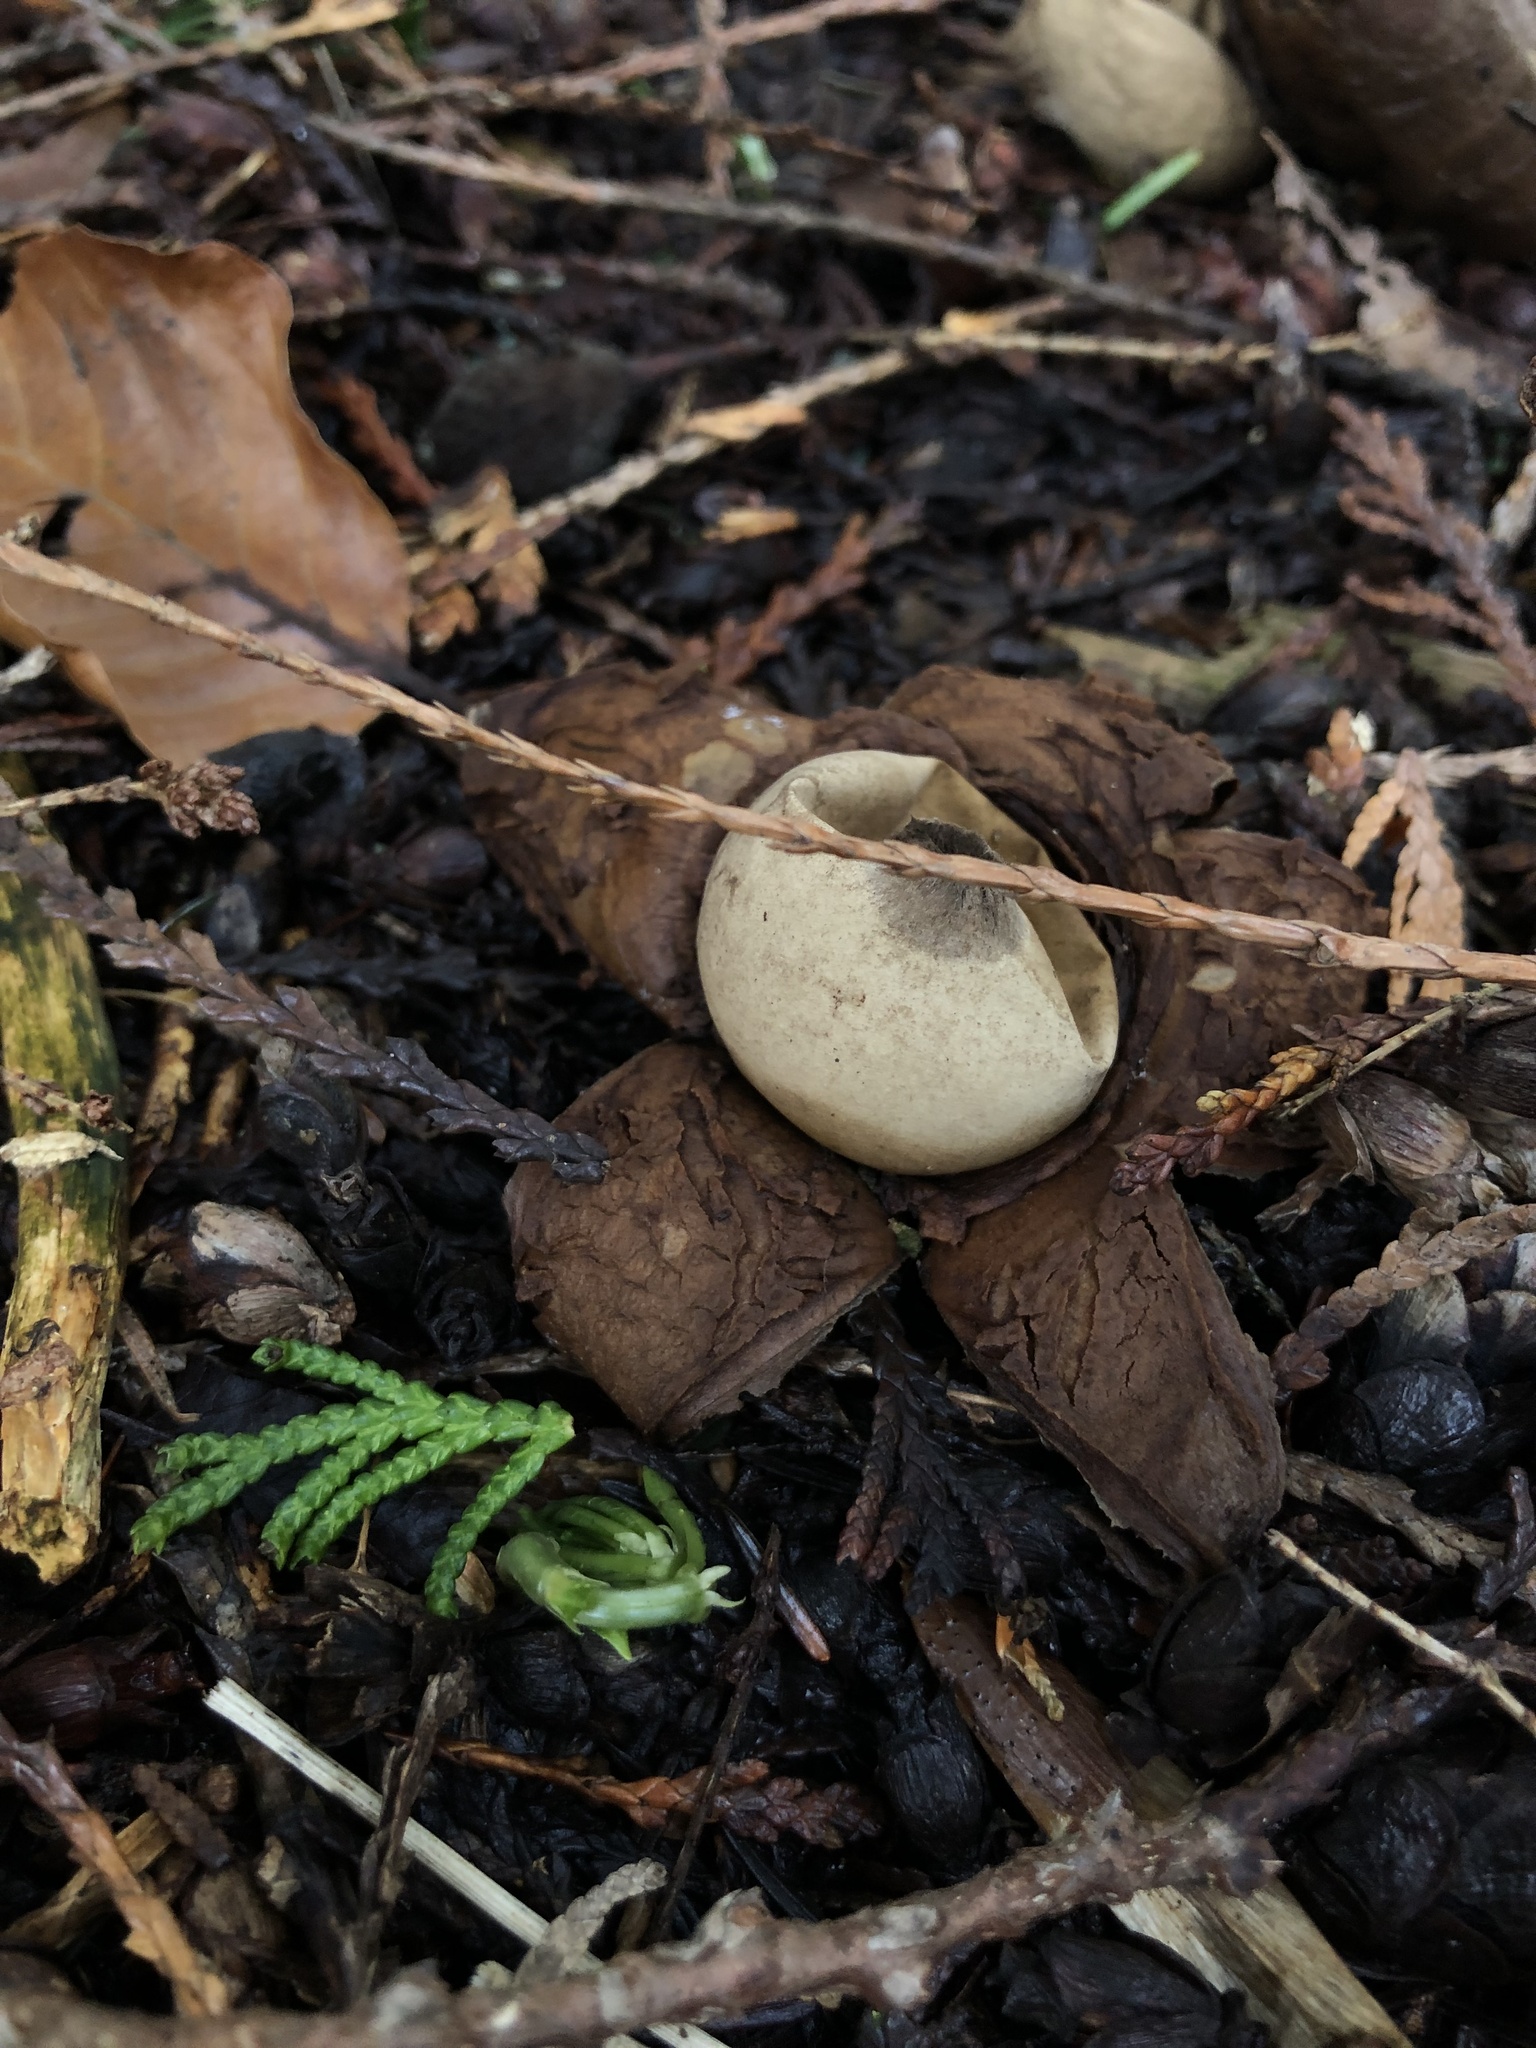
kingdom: Fungi
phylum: Basidiomycota
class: Agaricomycetes
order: Geastrales
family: Geastraceae
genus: Geastrum
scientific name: Geastrum triplex
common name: Collared earthstar
